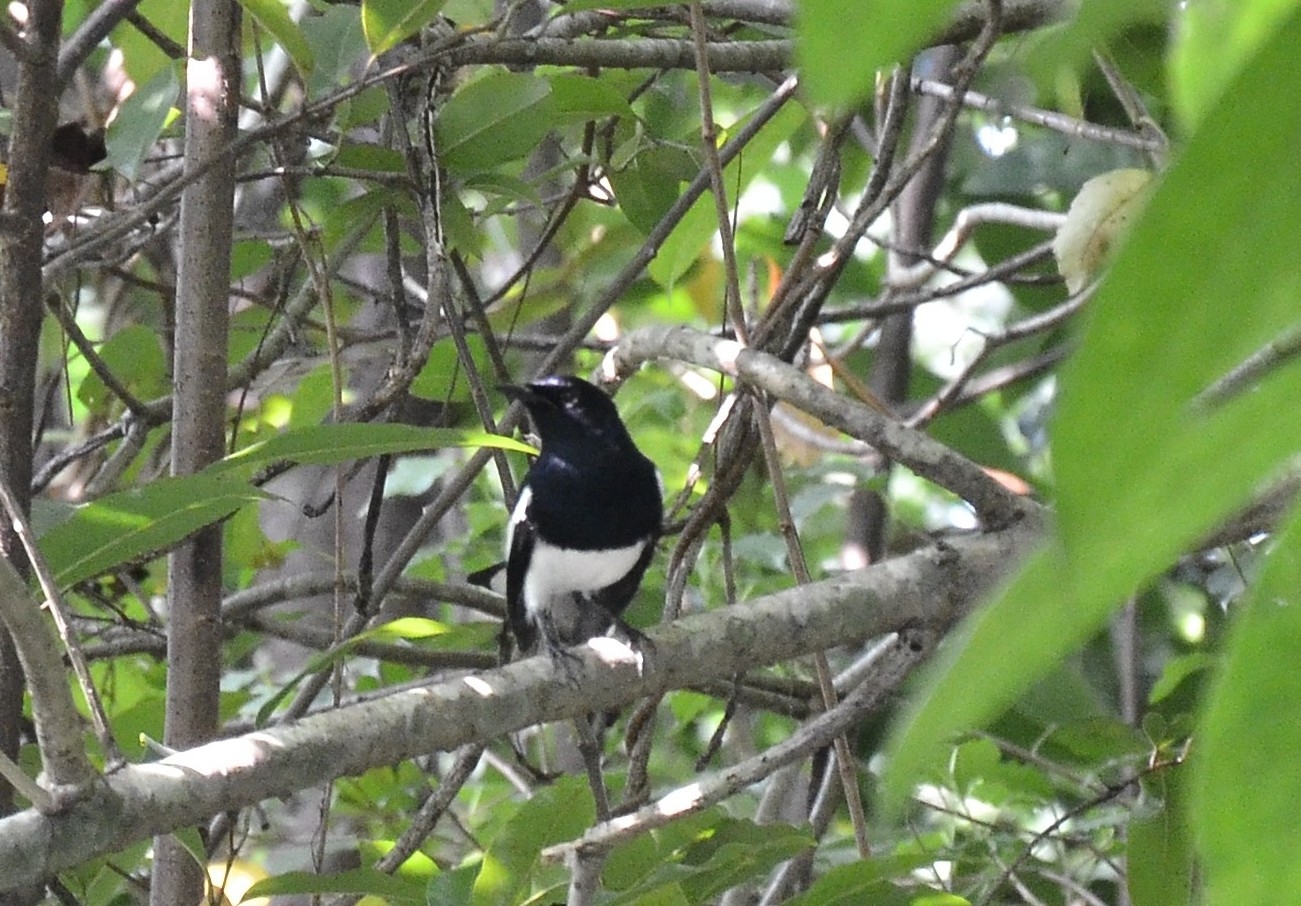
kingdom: Animalia
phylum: Chordata
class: Aves
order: Passeriformes
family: Muscicapidae
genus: Copsychus
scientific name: Copsychus saularis
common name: Oriental magpie-robin
